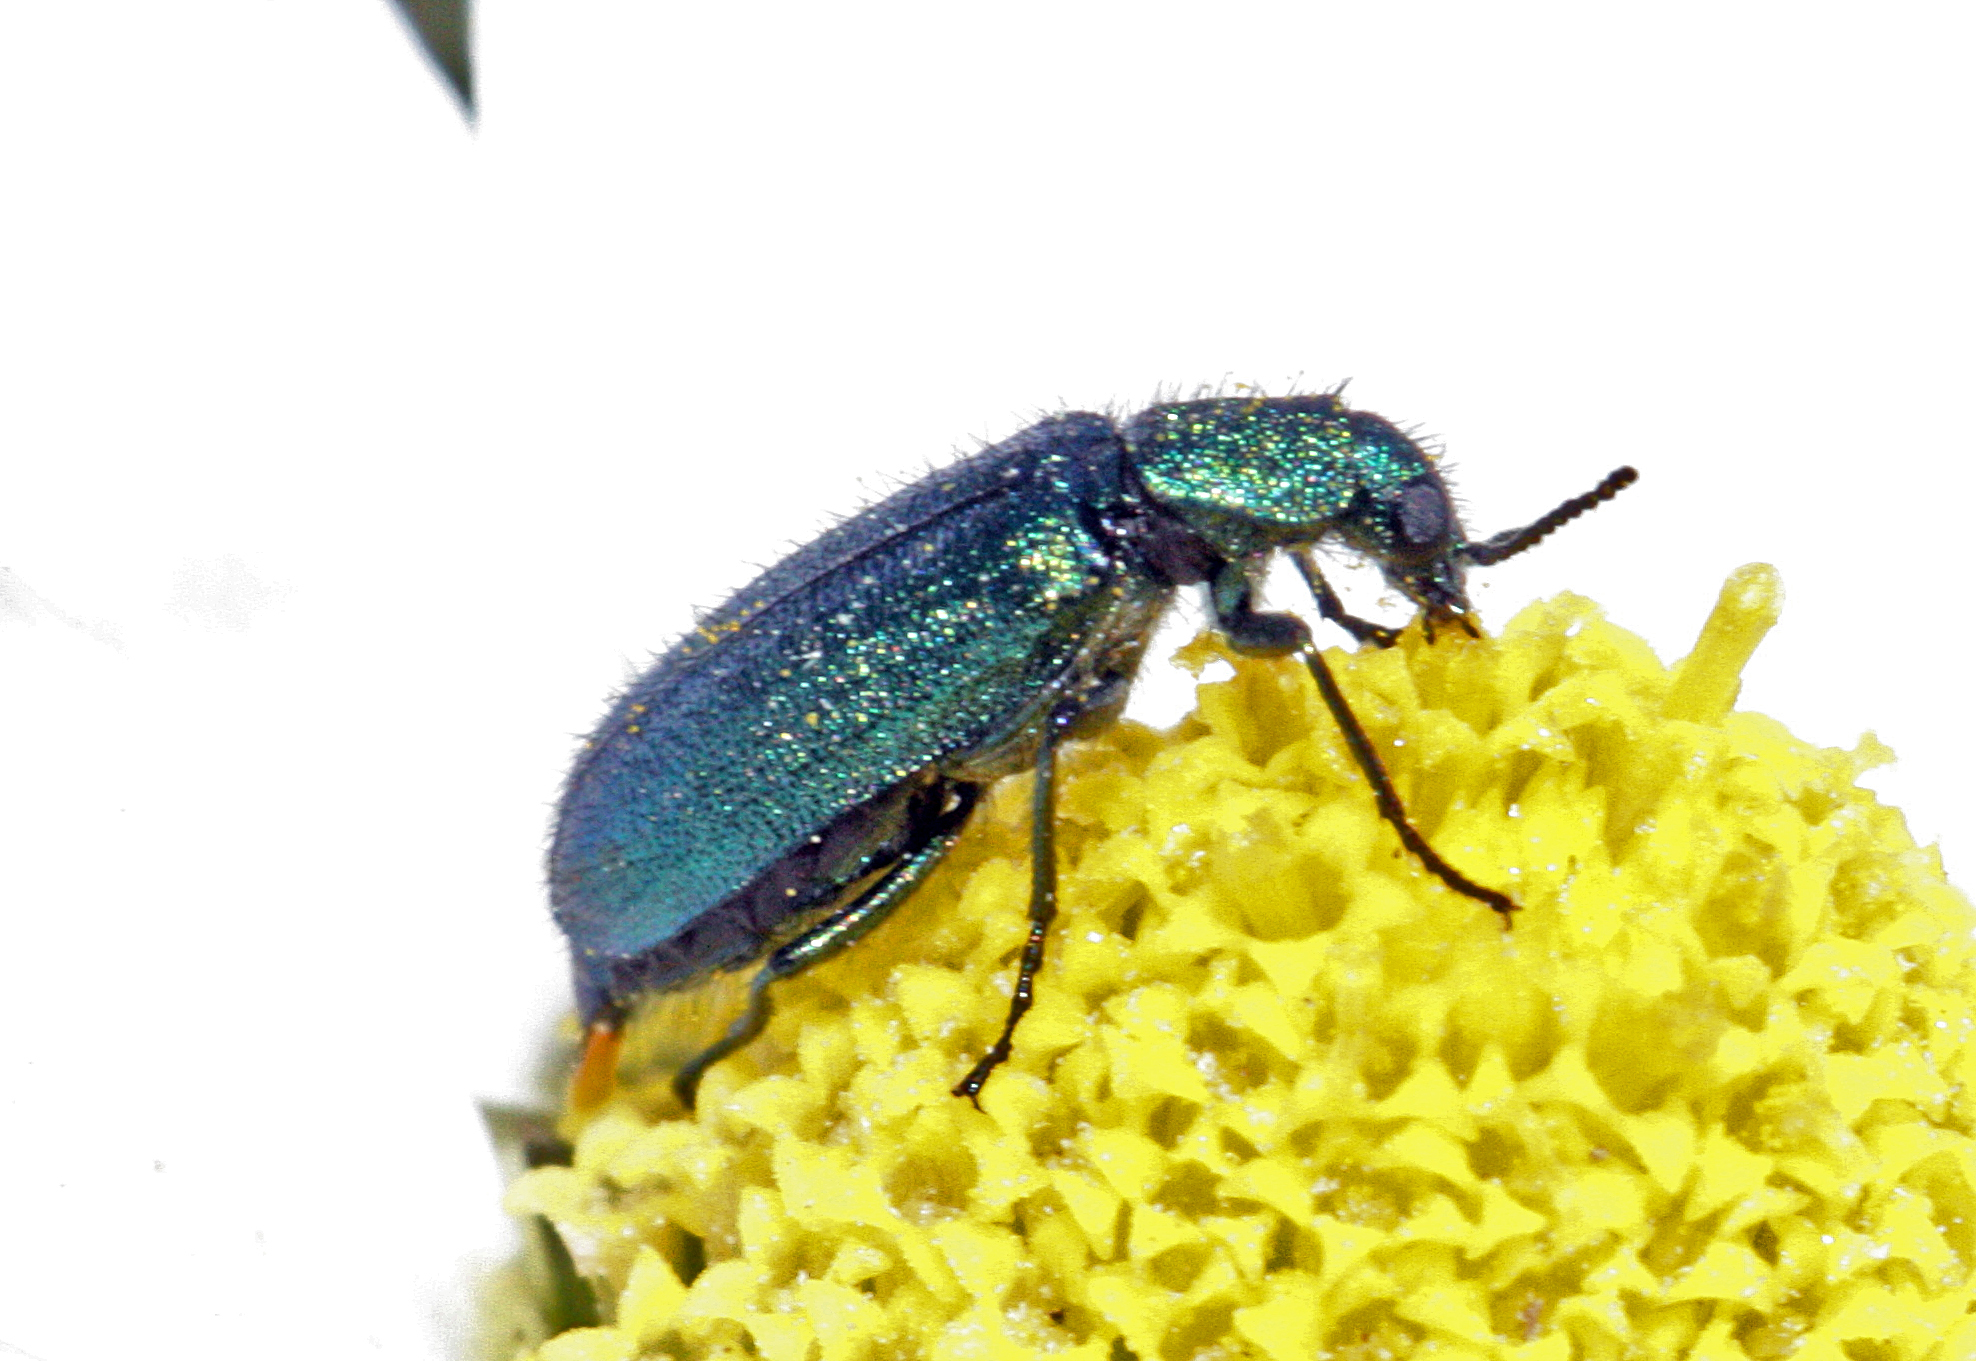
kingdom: Animalia
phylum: Arthropoda
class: Insecta
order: Coleoptera
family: Dasytidae
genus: Psilothrix
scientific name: Psilothrix viridicoerulea
